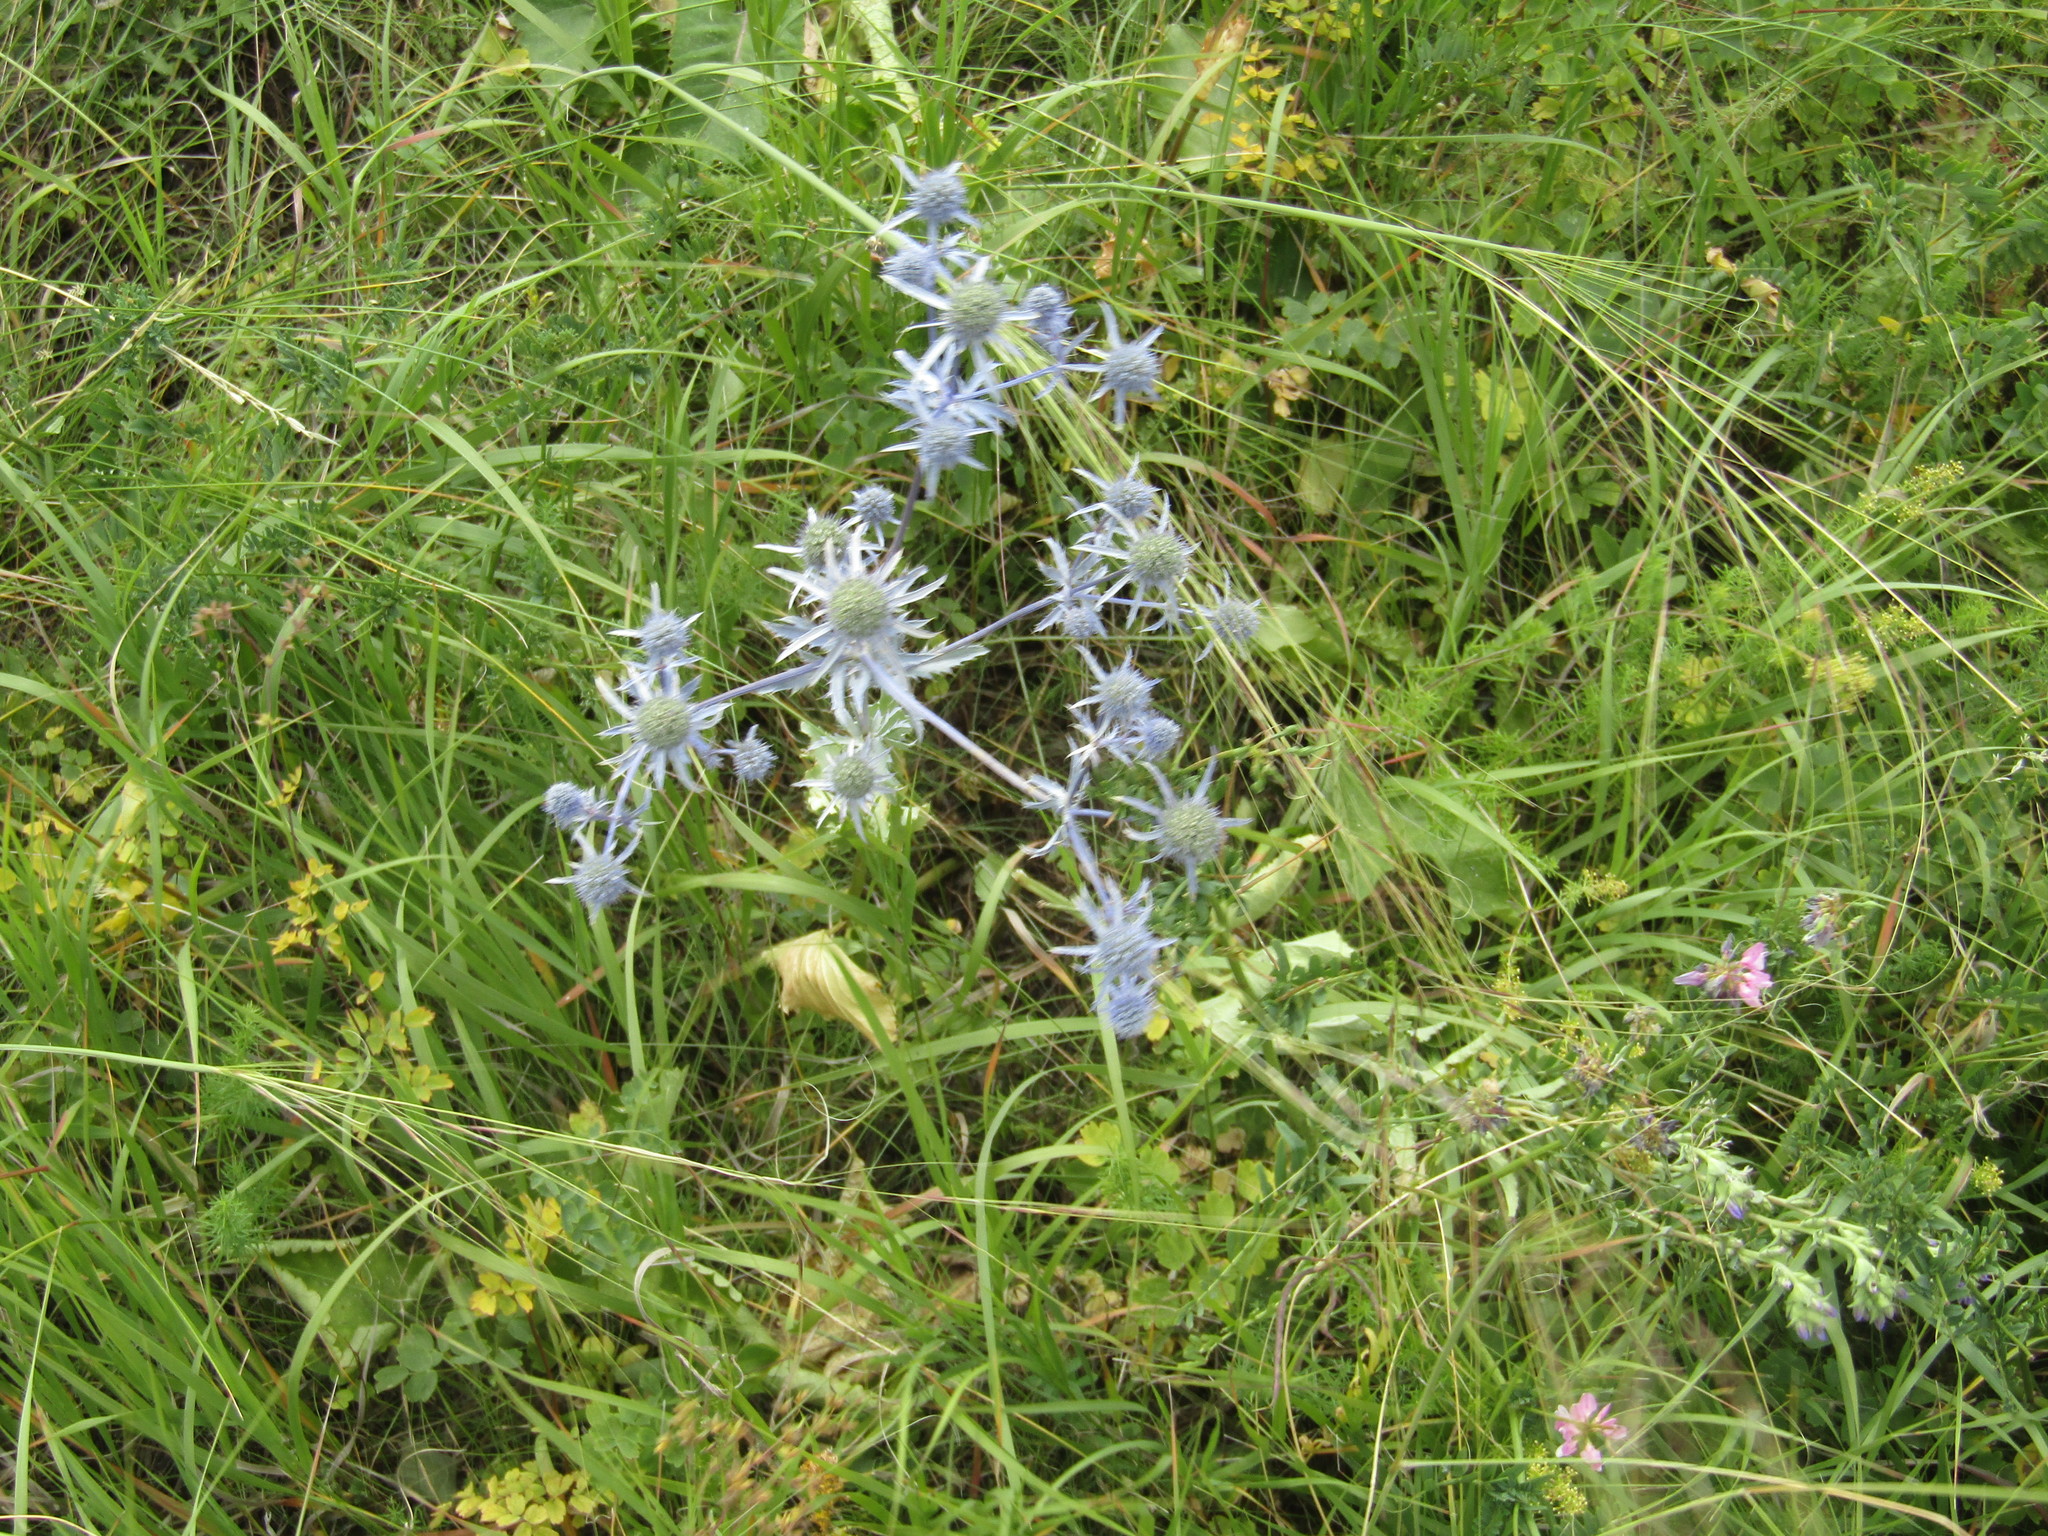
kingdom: Plantae
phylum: Tracheophyta
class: Magnoliopsida
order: Apiales
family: Apiaceae
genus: Eryngium
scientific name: Eryngium planum
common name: Blue eryngo
